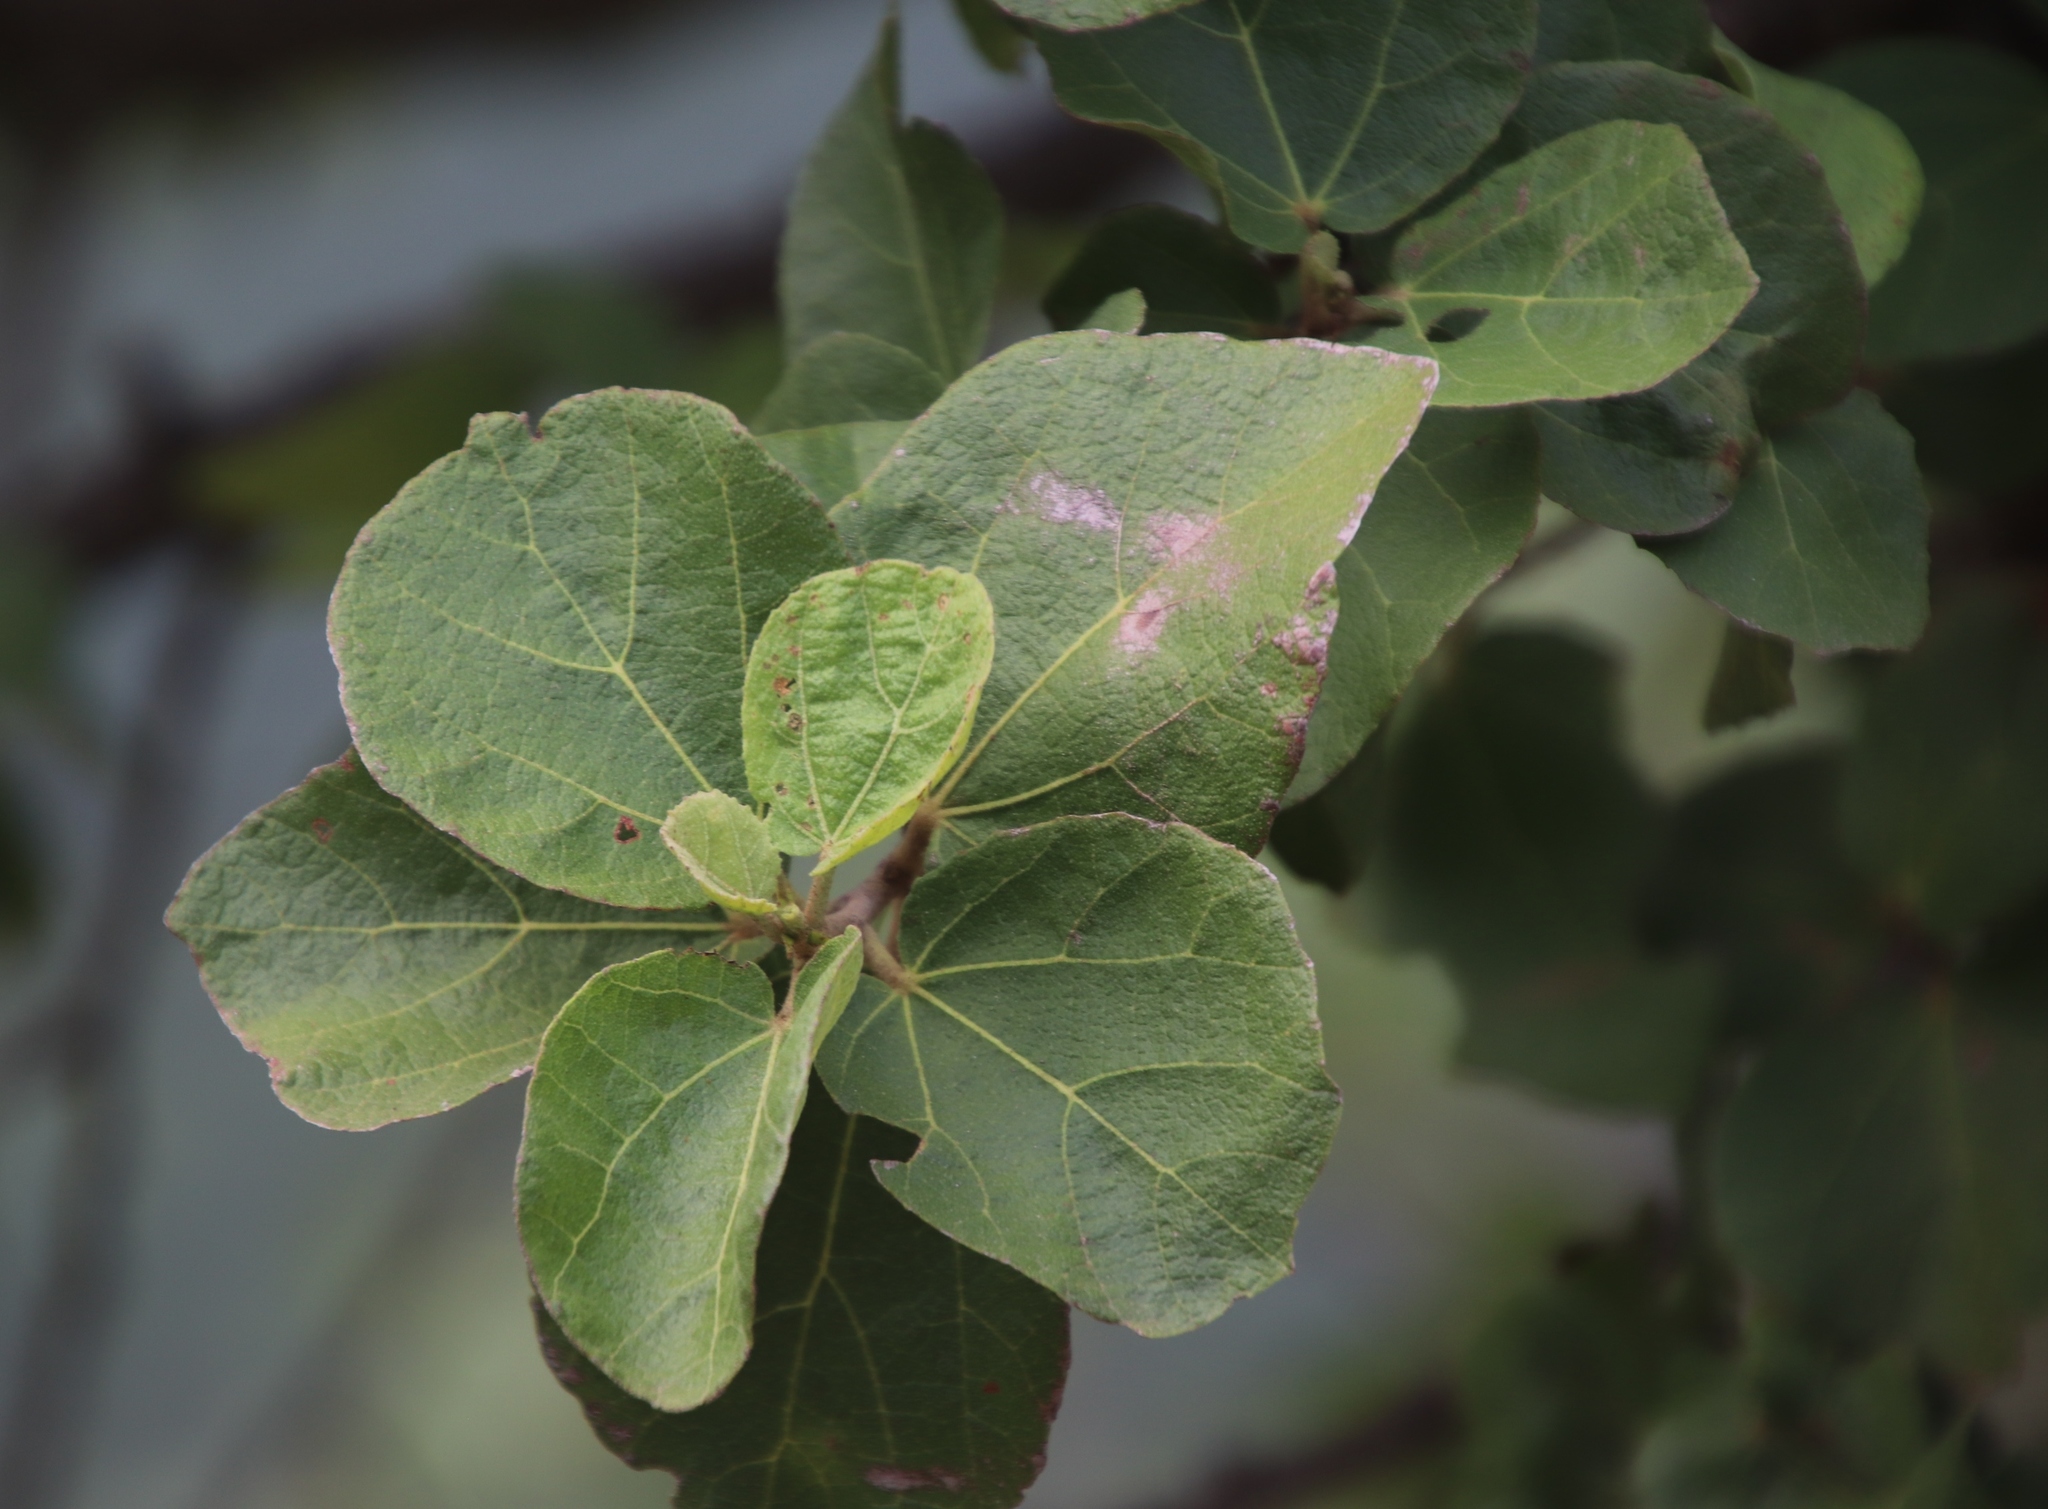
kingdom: Plantae
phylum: Tracheophyta
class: Magnoliopsida
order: Malvales
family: Malvaceae
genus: Dombeya
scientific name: Dombeya rotundifolia
